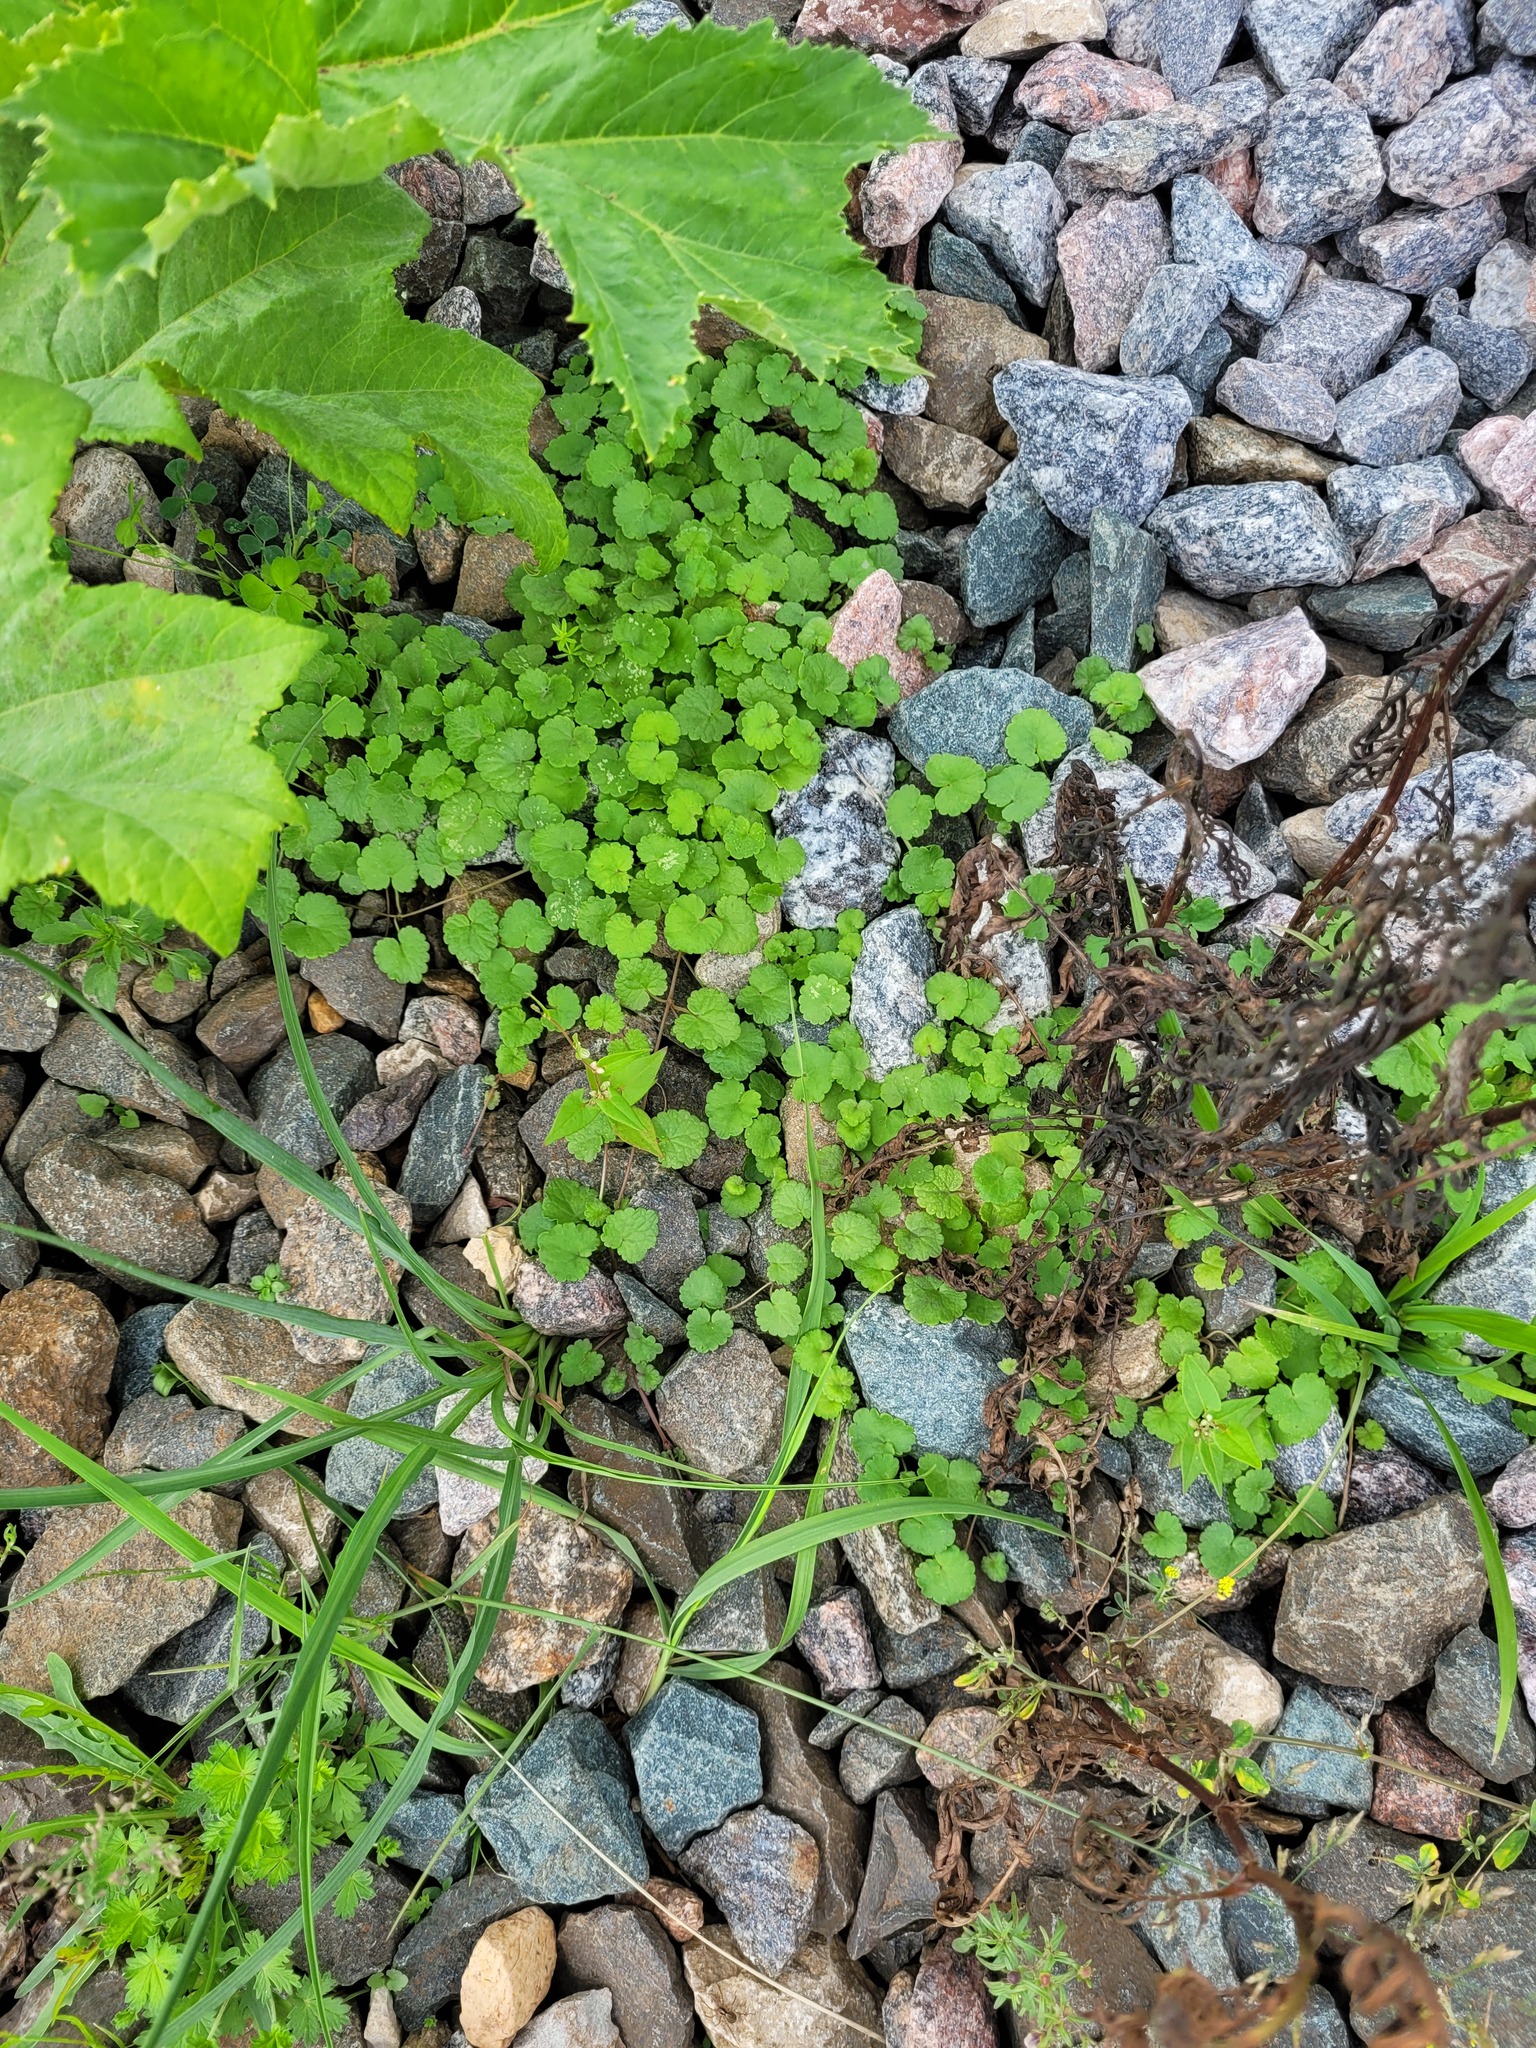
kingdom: Plantae
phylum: Tracheophyta
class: Magnoliopsida
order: Lamiales
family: Lamiaceae
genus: Glechoma
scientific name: Glechoma hederacea
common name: Ground ivy
